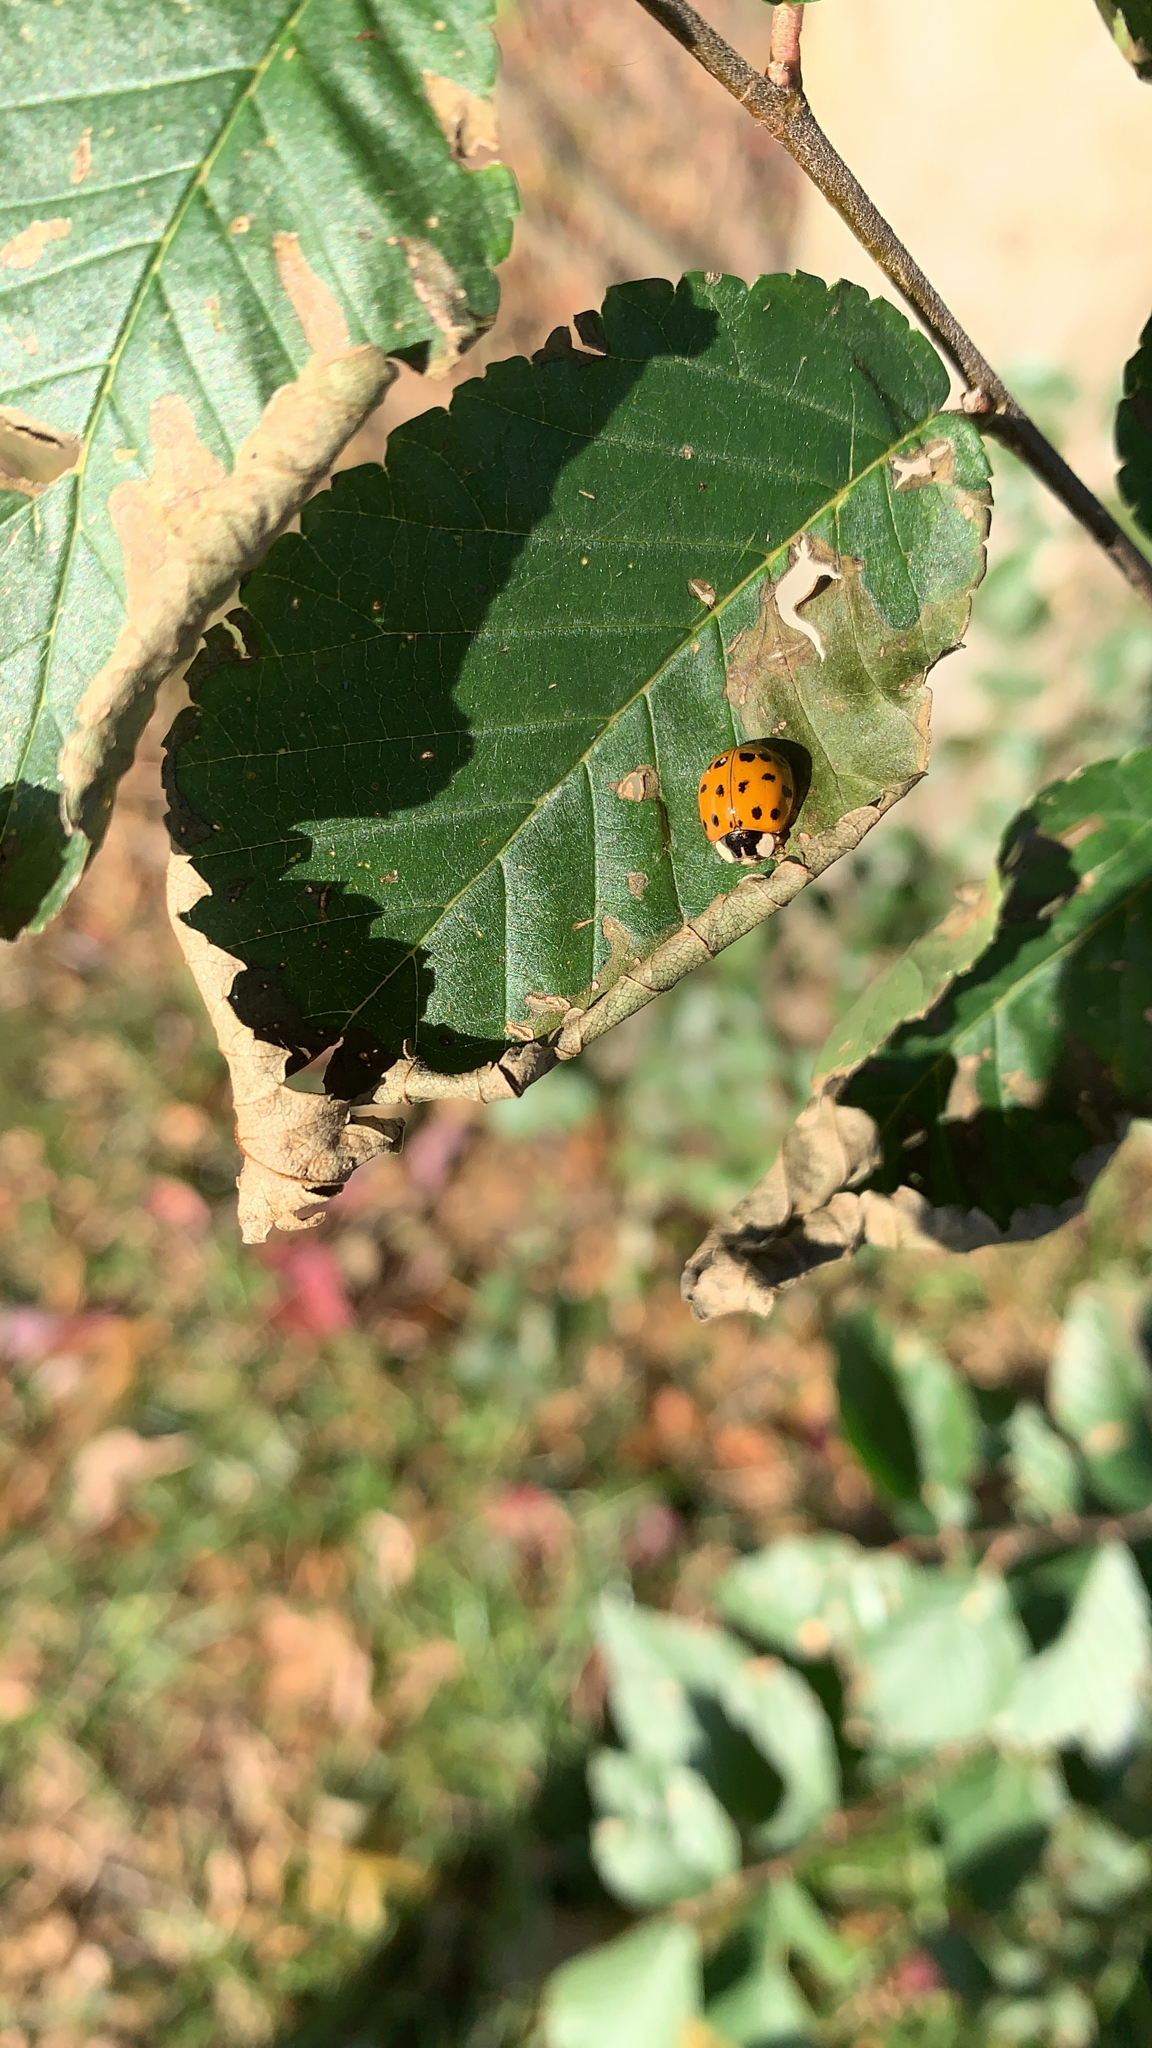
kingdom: Animalia
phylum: Arthropoda
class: Insecta
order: Coleoptera
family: Coccinellidae
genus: Harmonia
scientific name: Harmonia axyridis
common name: Harlequin ladybird
